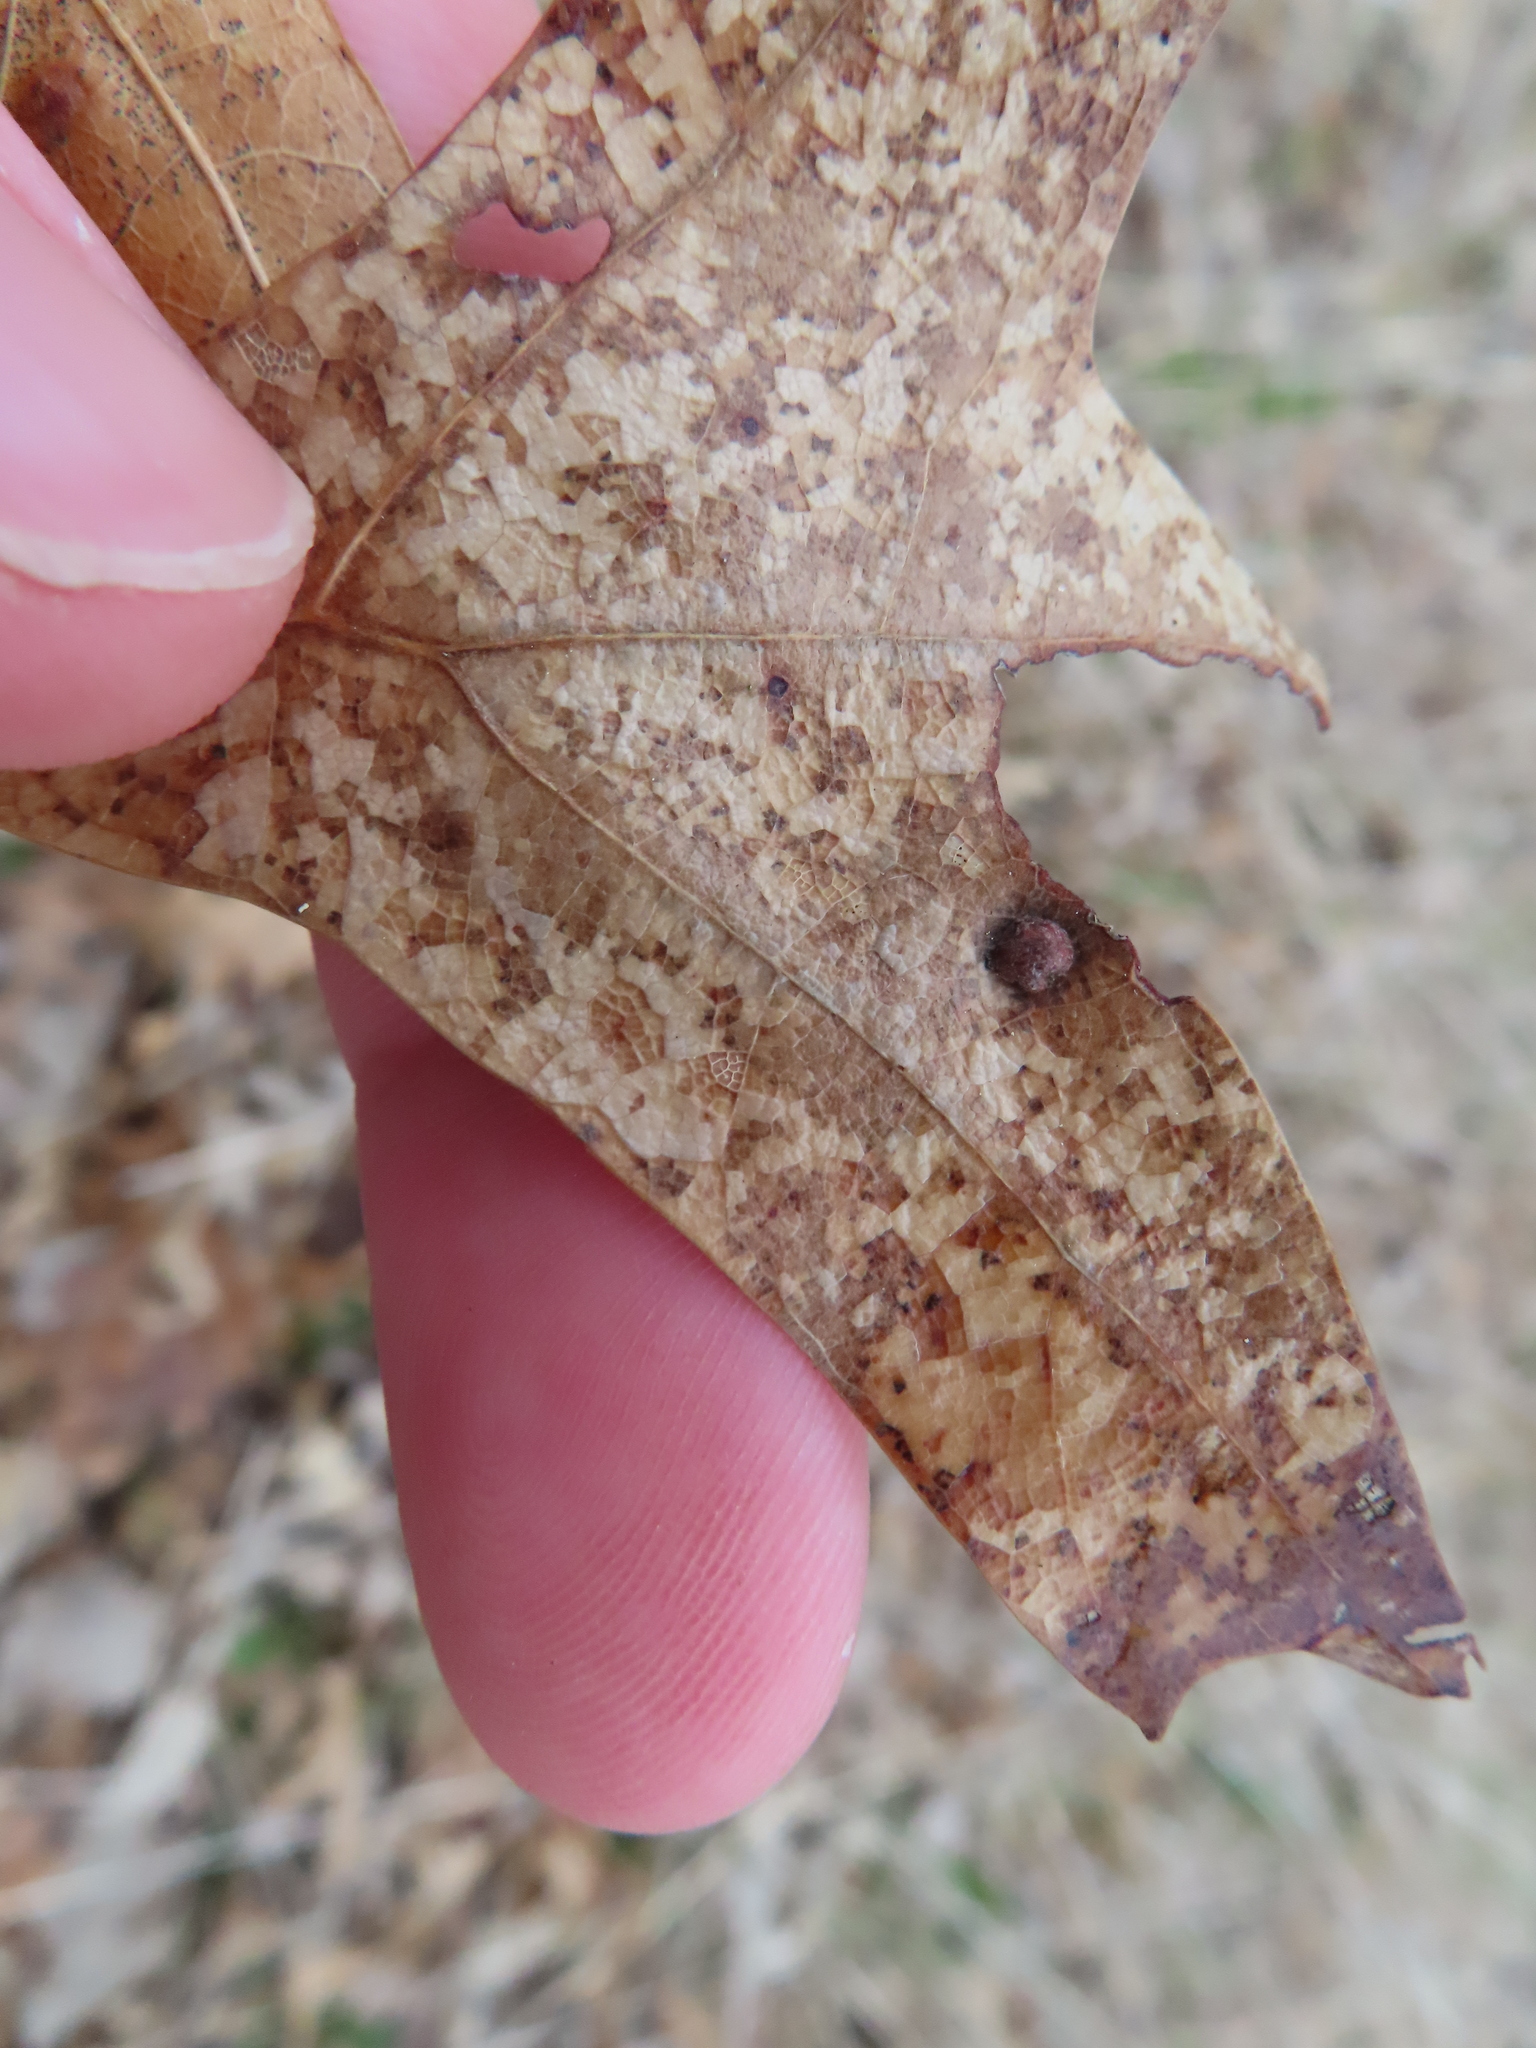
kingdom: Animalia
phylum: Arthropoda
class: Insecta
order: Diptera
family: Cecidomyiidae
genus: Polystepha
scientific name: Polystepha pilulae
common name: Oak leaf gall midge
